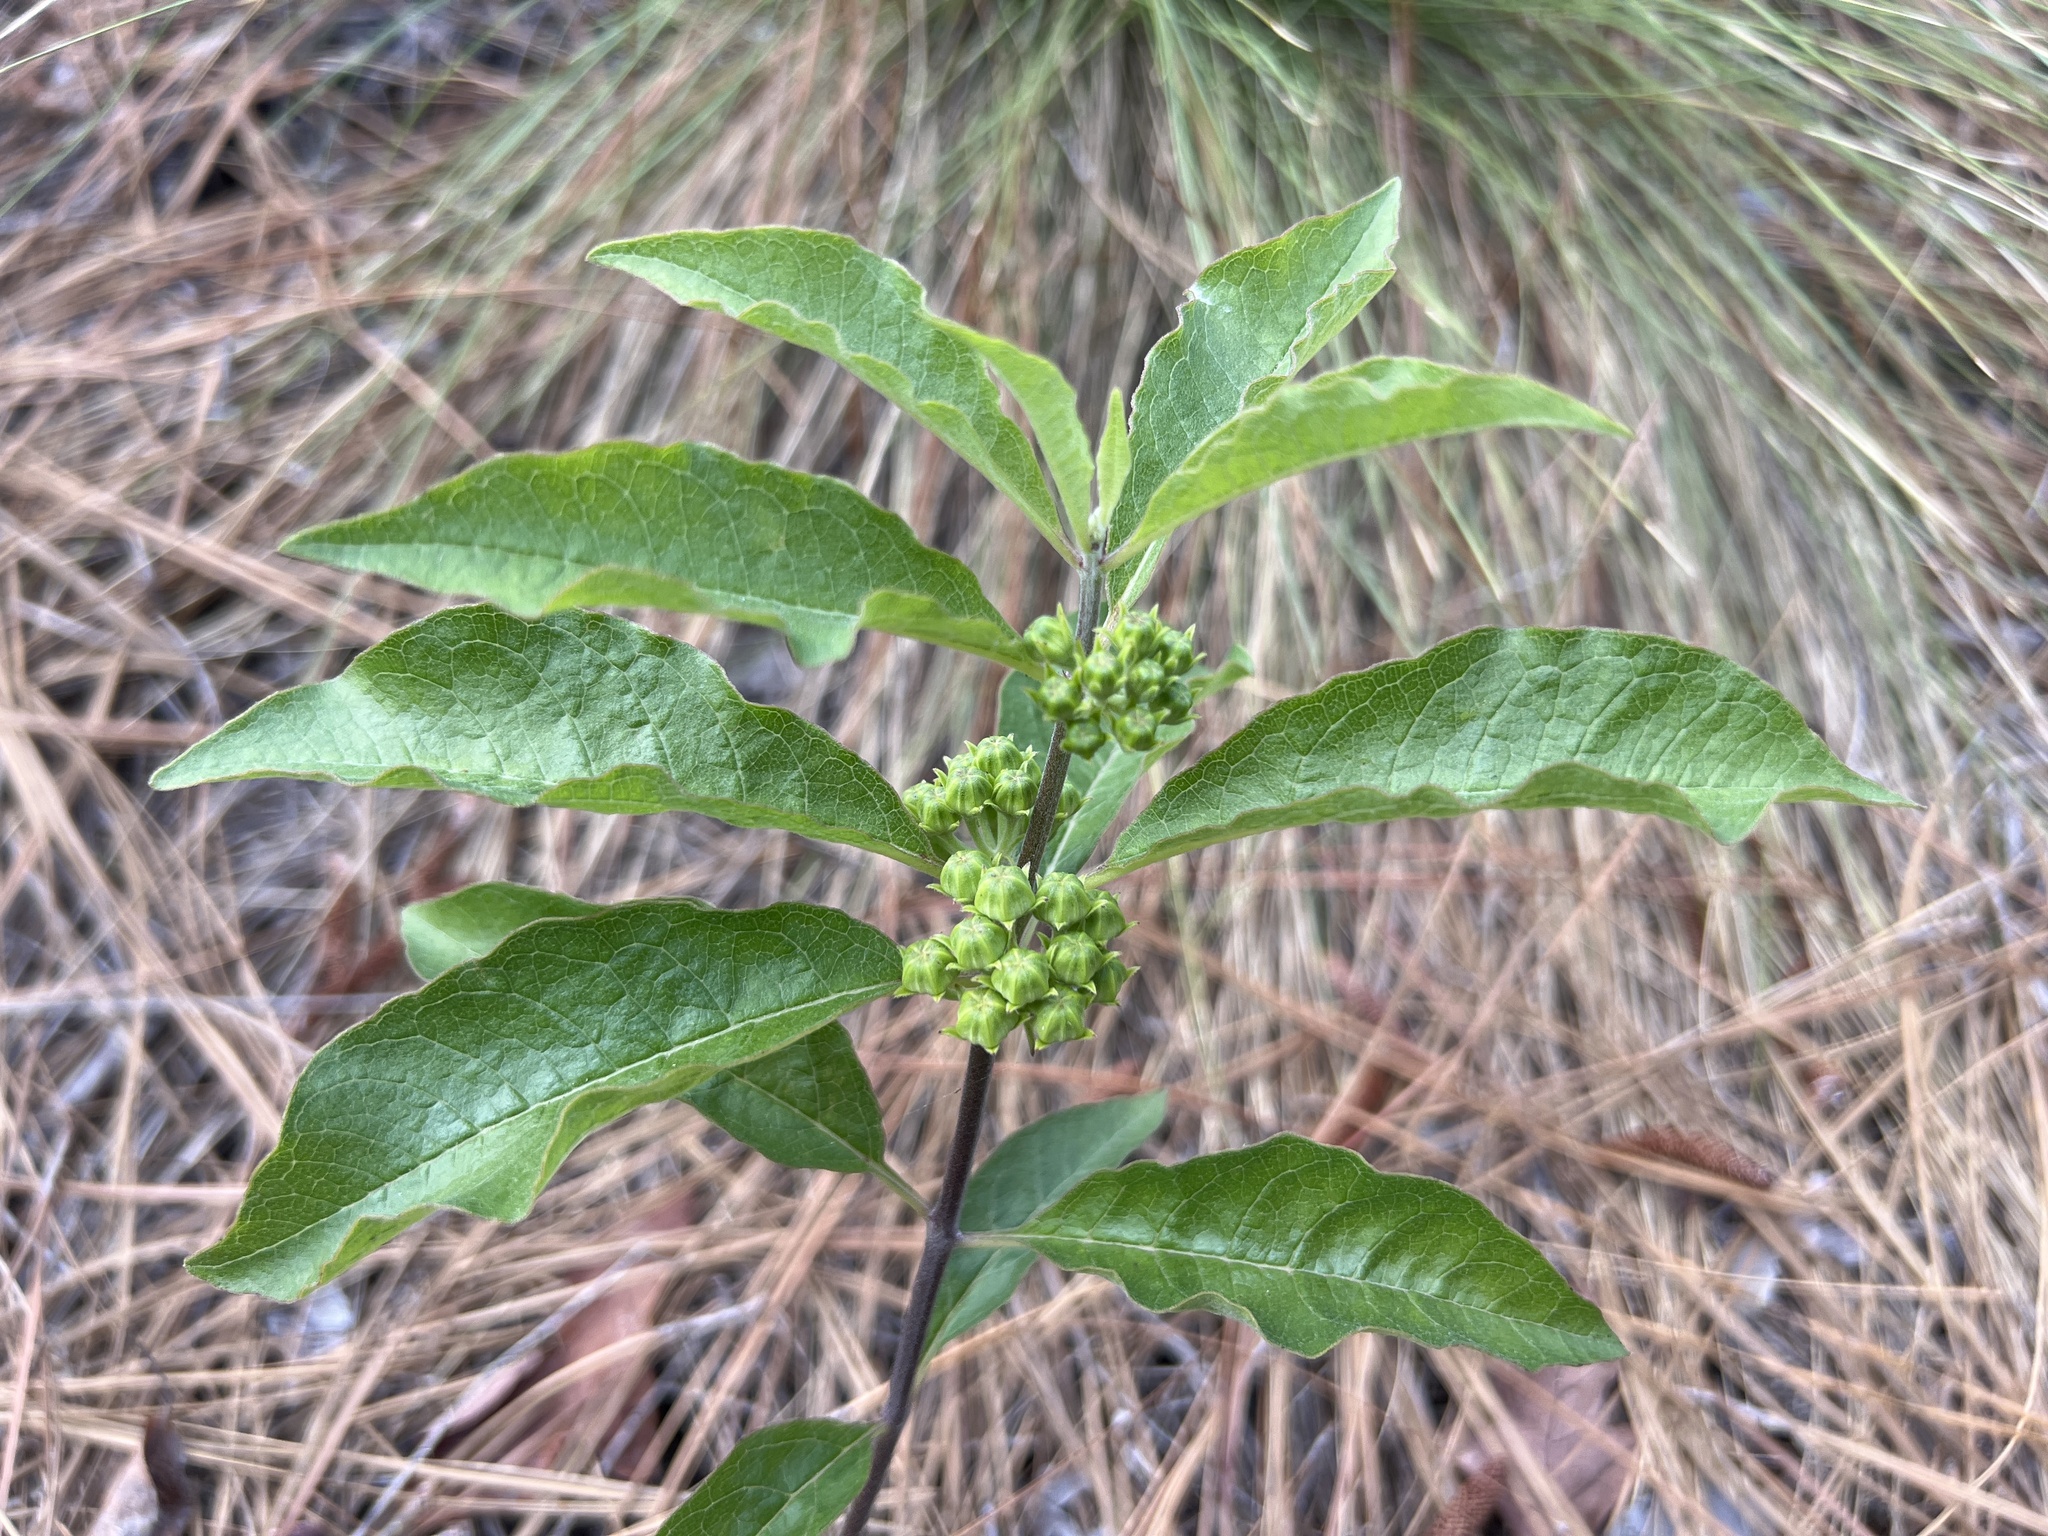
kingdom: Plantae
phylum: Tracheophyta
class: Magnoliopsida
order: Gentianales
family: Apocynaceae
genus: Asclepias
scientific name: Asclepias tomentosa
